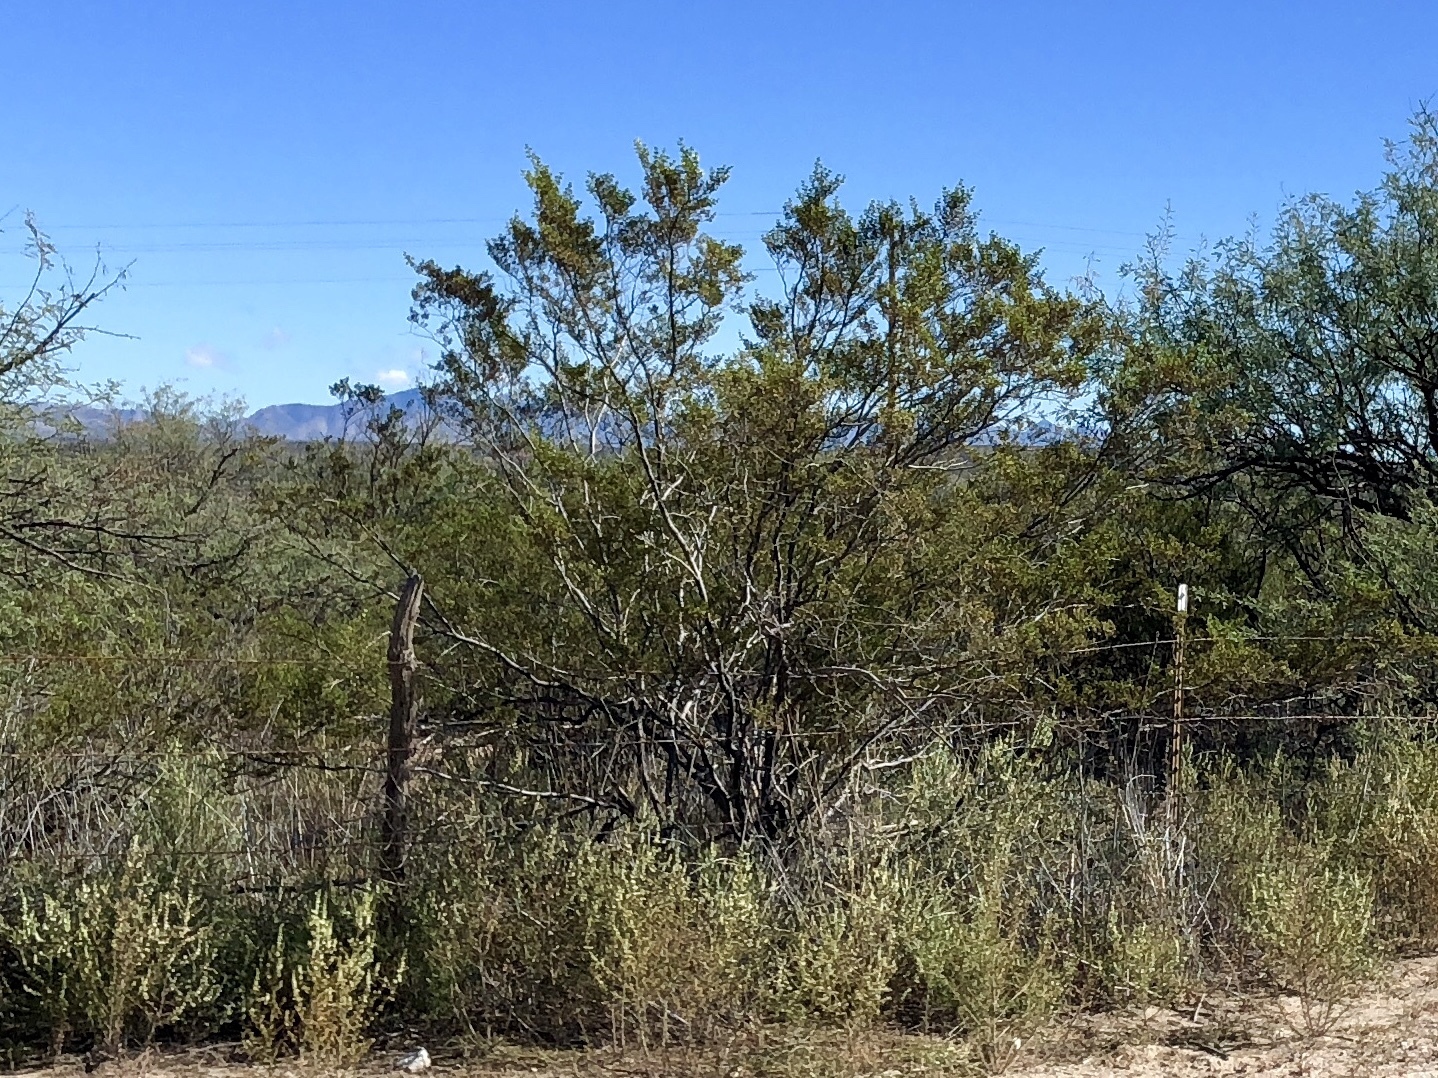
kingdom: Plantae
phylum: Tracheophyta
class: Magnoliopsida
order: Zygophyllales
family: Zygophyllaceae
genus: Larrea
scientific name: Larrea tridentata
